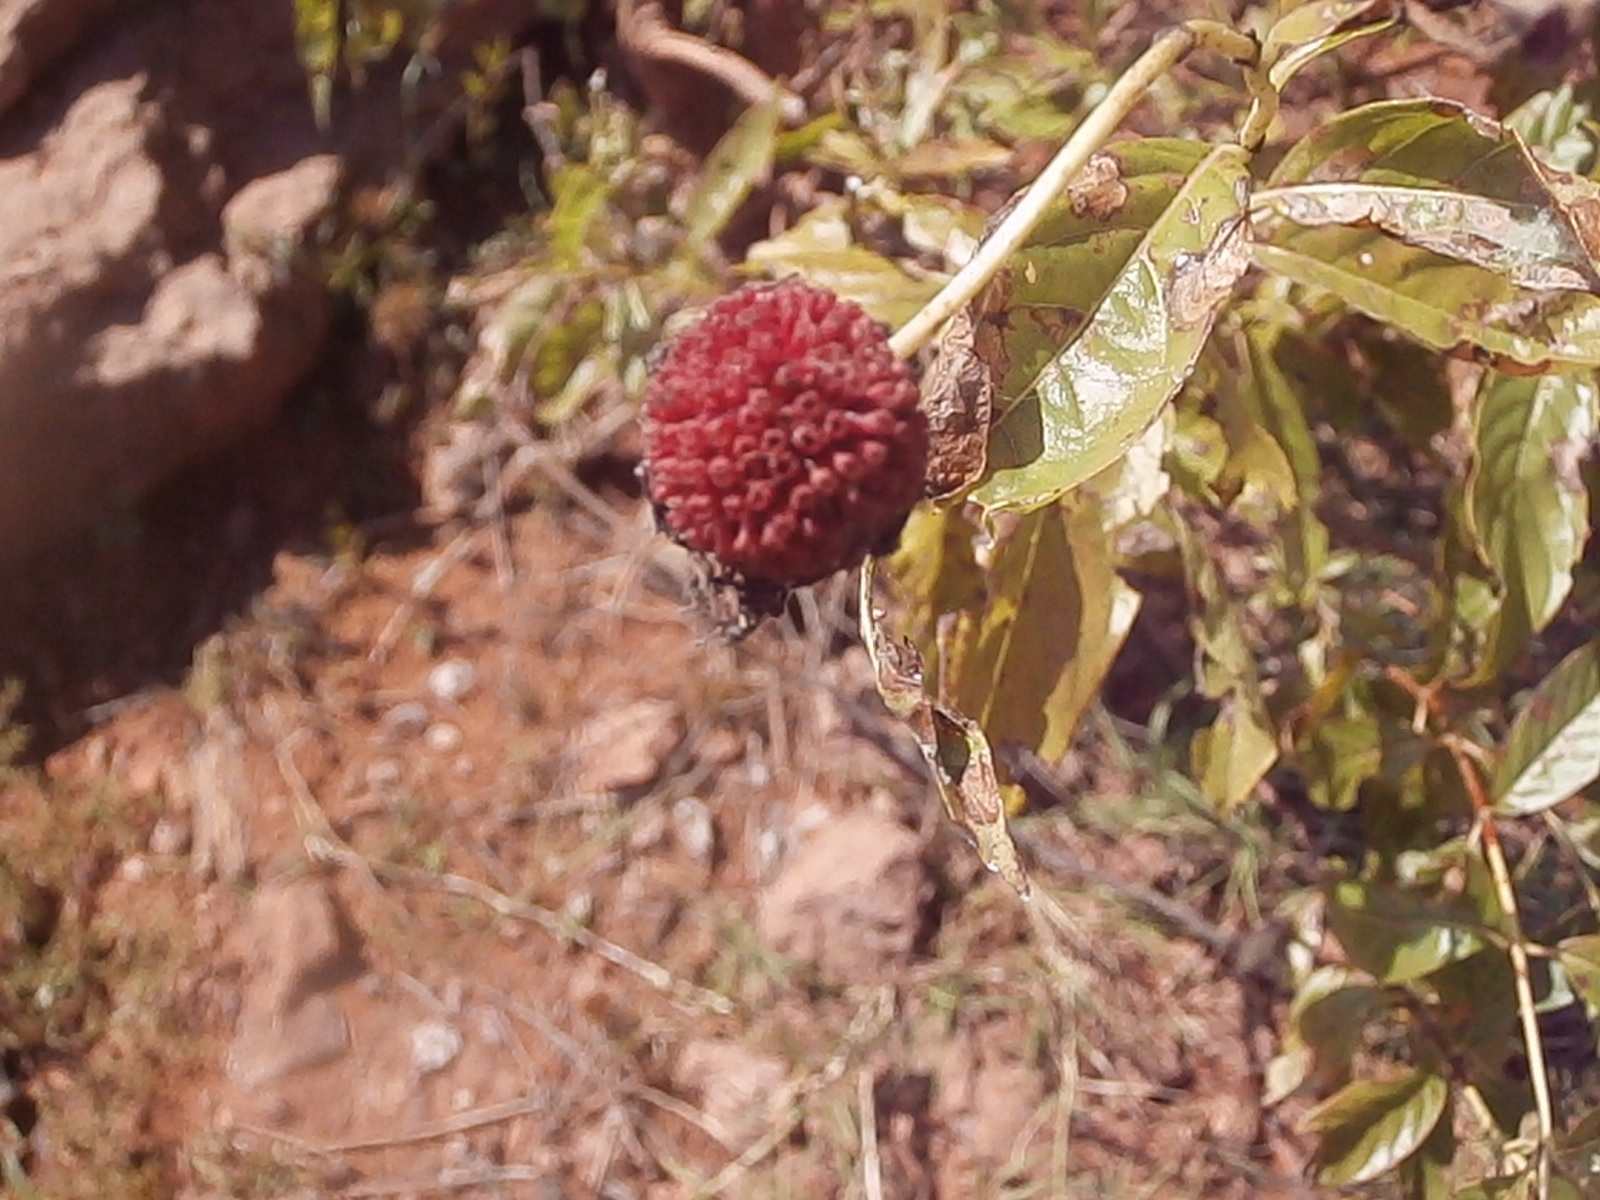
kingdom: Plantae
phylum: Tracheophyta
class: Magnoliopsida
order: Gentianales
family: Rubiaceae
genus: Cephalanthus
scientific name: Cephalanthus occidentalis
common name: Button-willow
